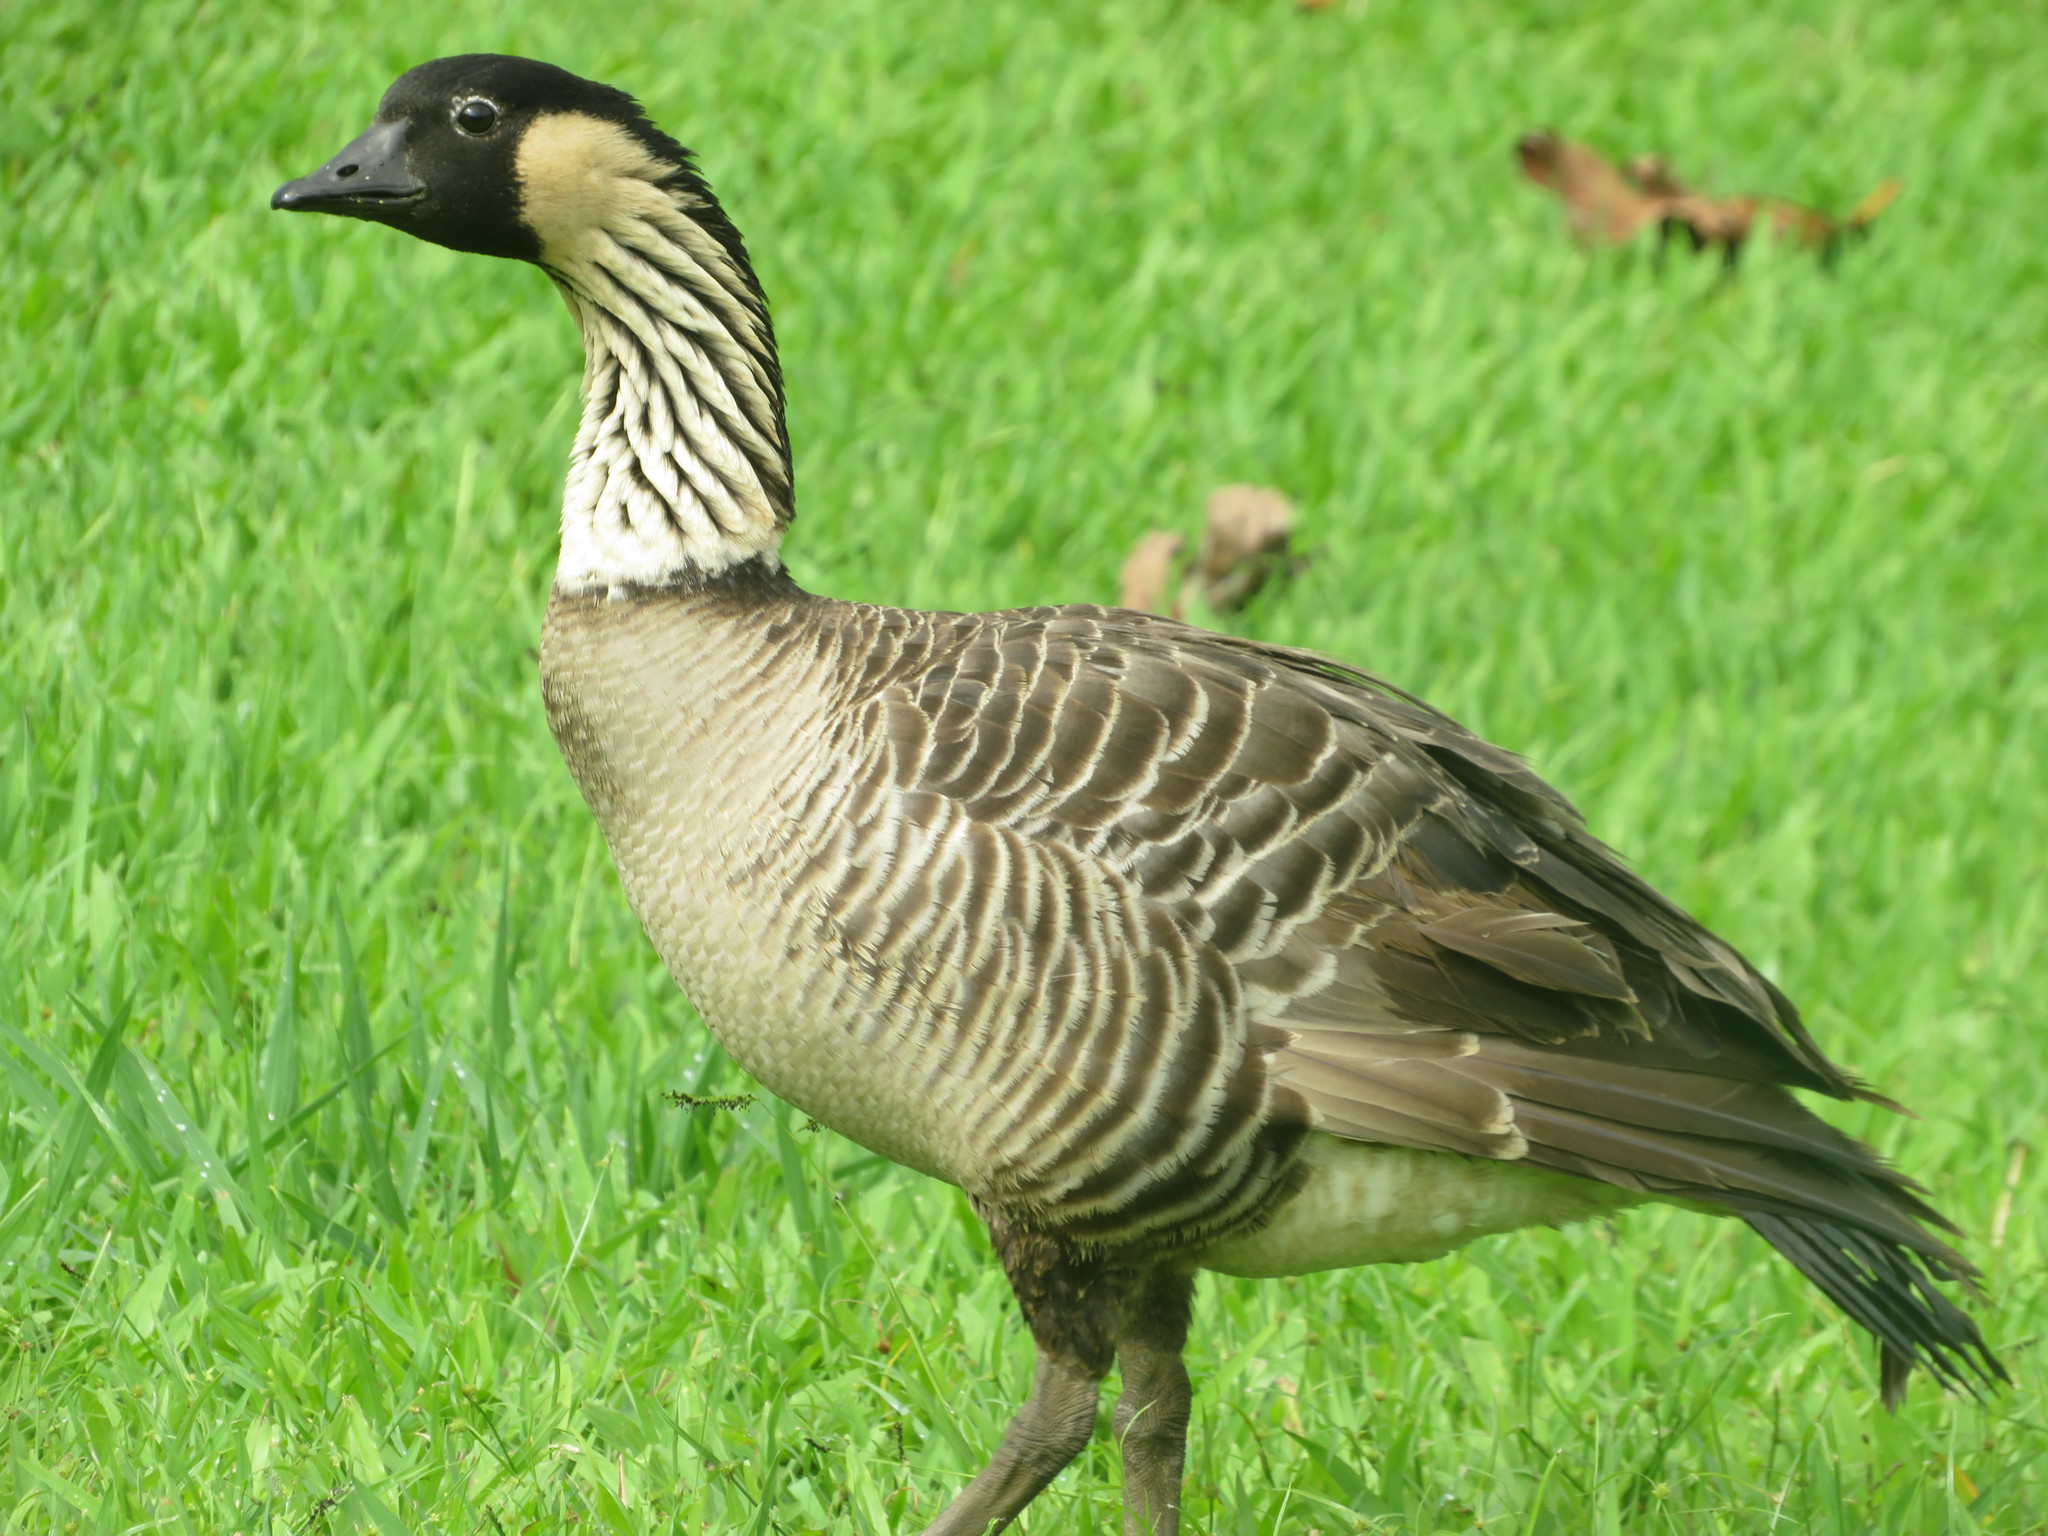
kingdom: Animalia
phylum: Chordata
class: Aves
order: Anseriformes
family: Anatidae
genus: Branta
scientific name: Branta sandvicensis
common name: Nene
